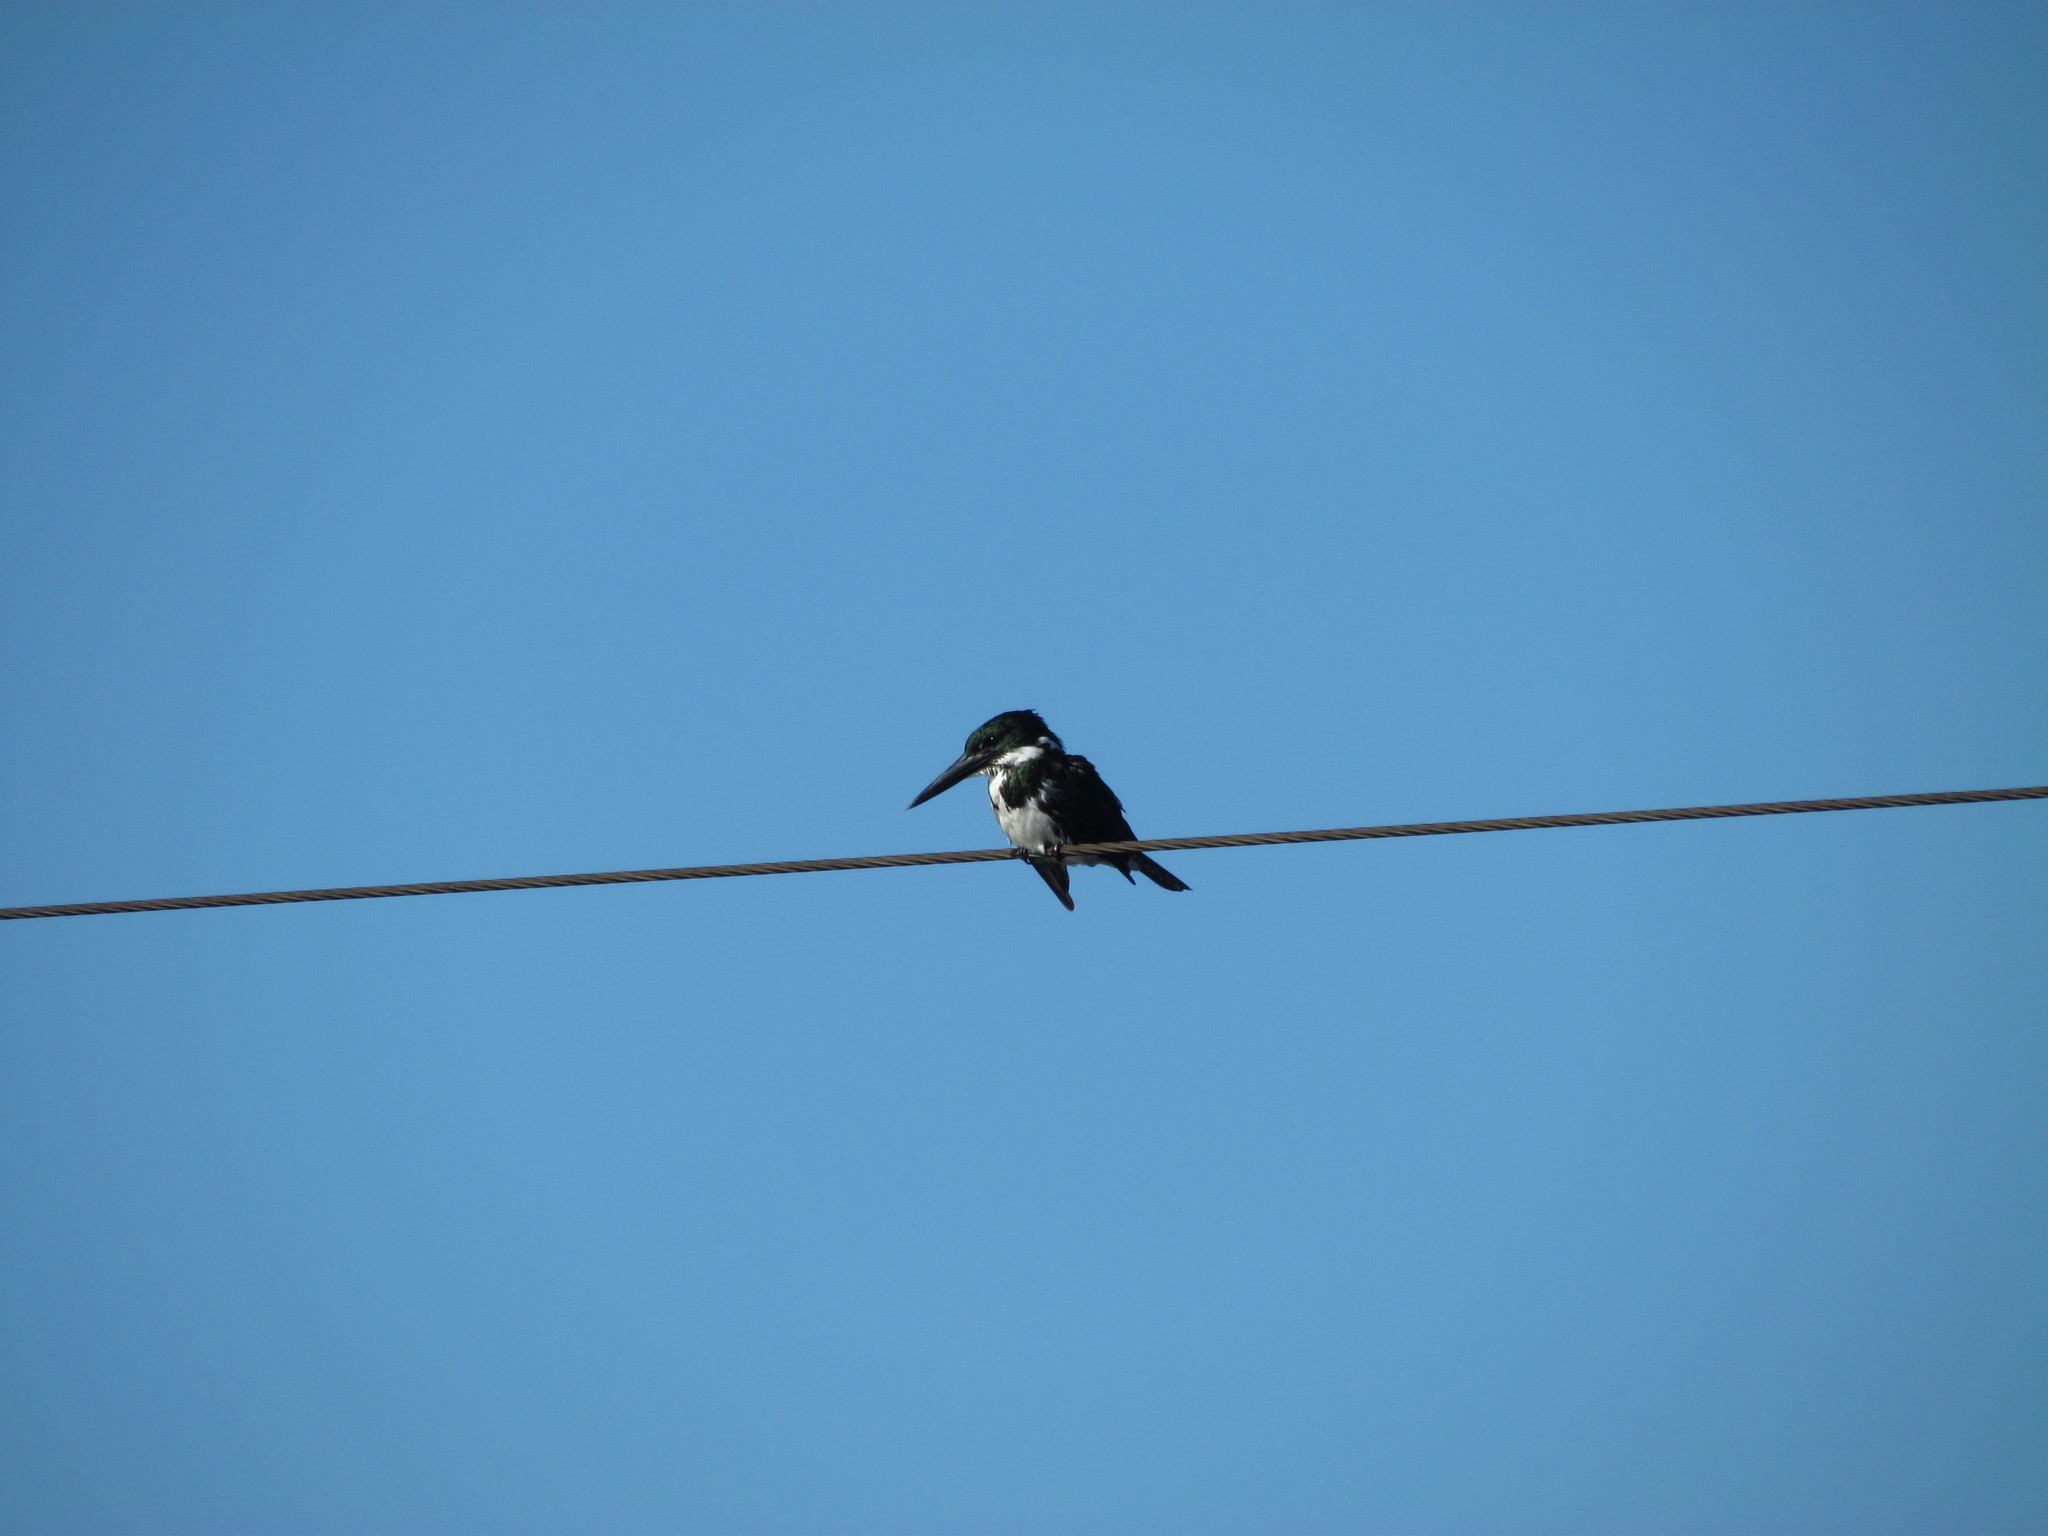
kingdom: Animalia
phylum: Chordata
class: Aves
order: Coraciiformes
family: Alcedinidae
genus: Chloroceryle
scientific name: Chloroceryle amazona
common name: Amazon kingfisher
